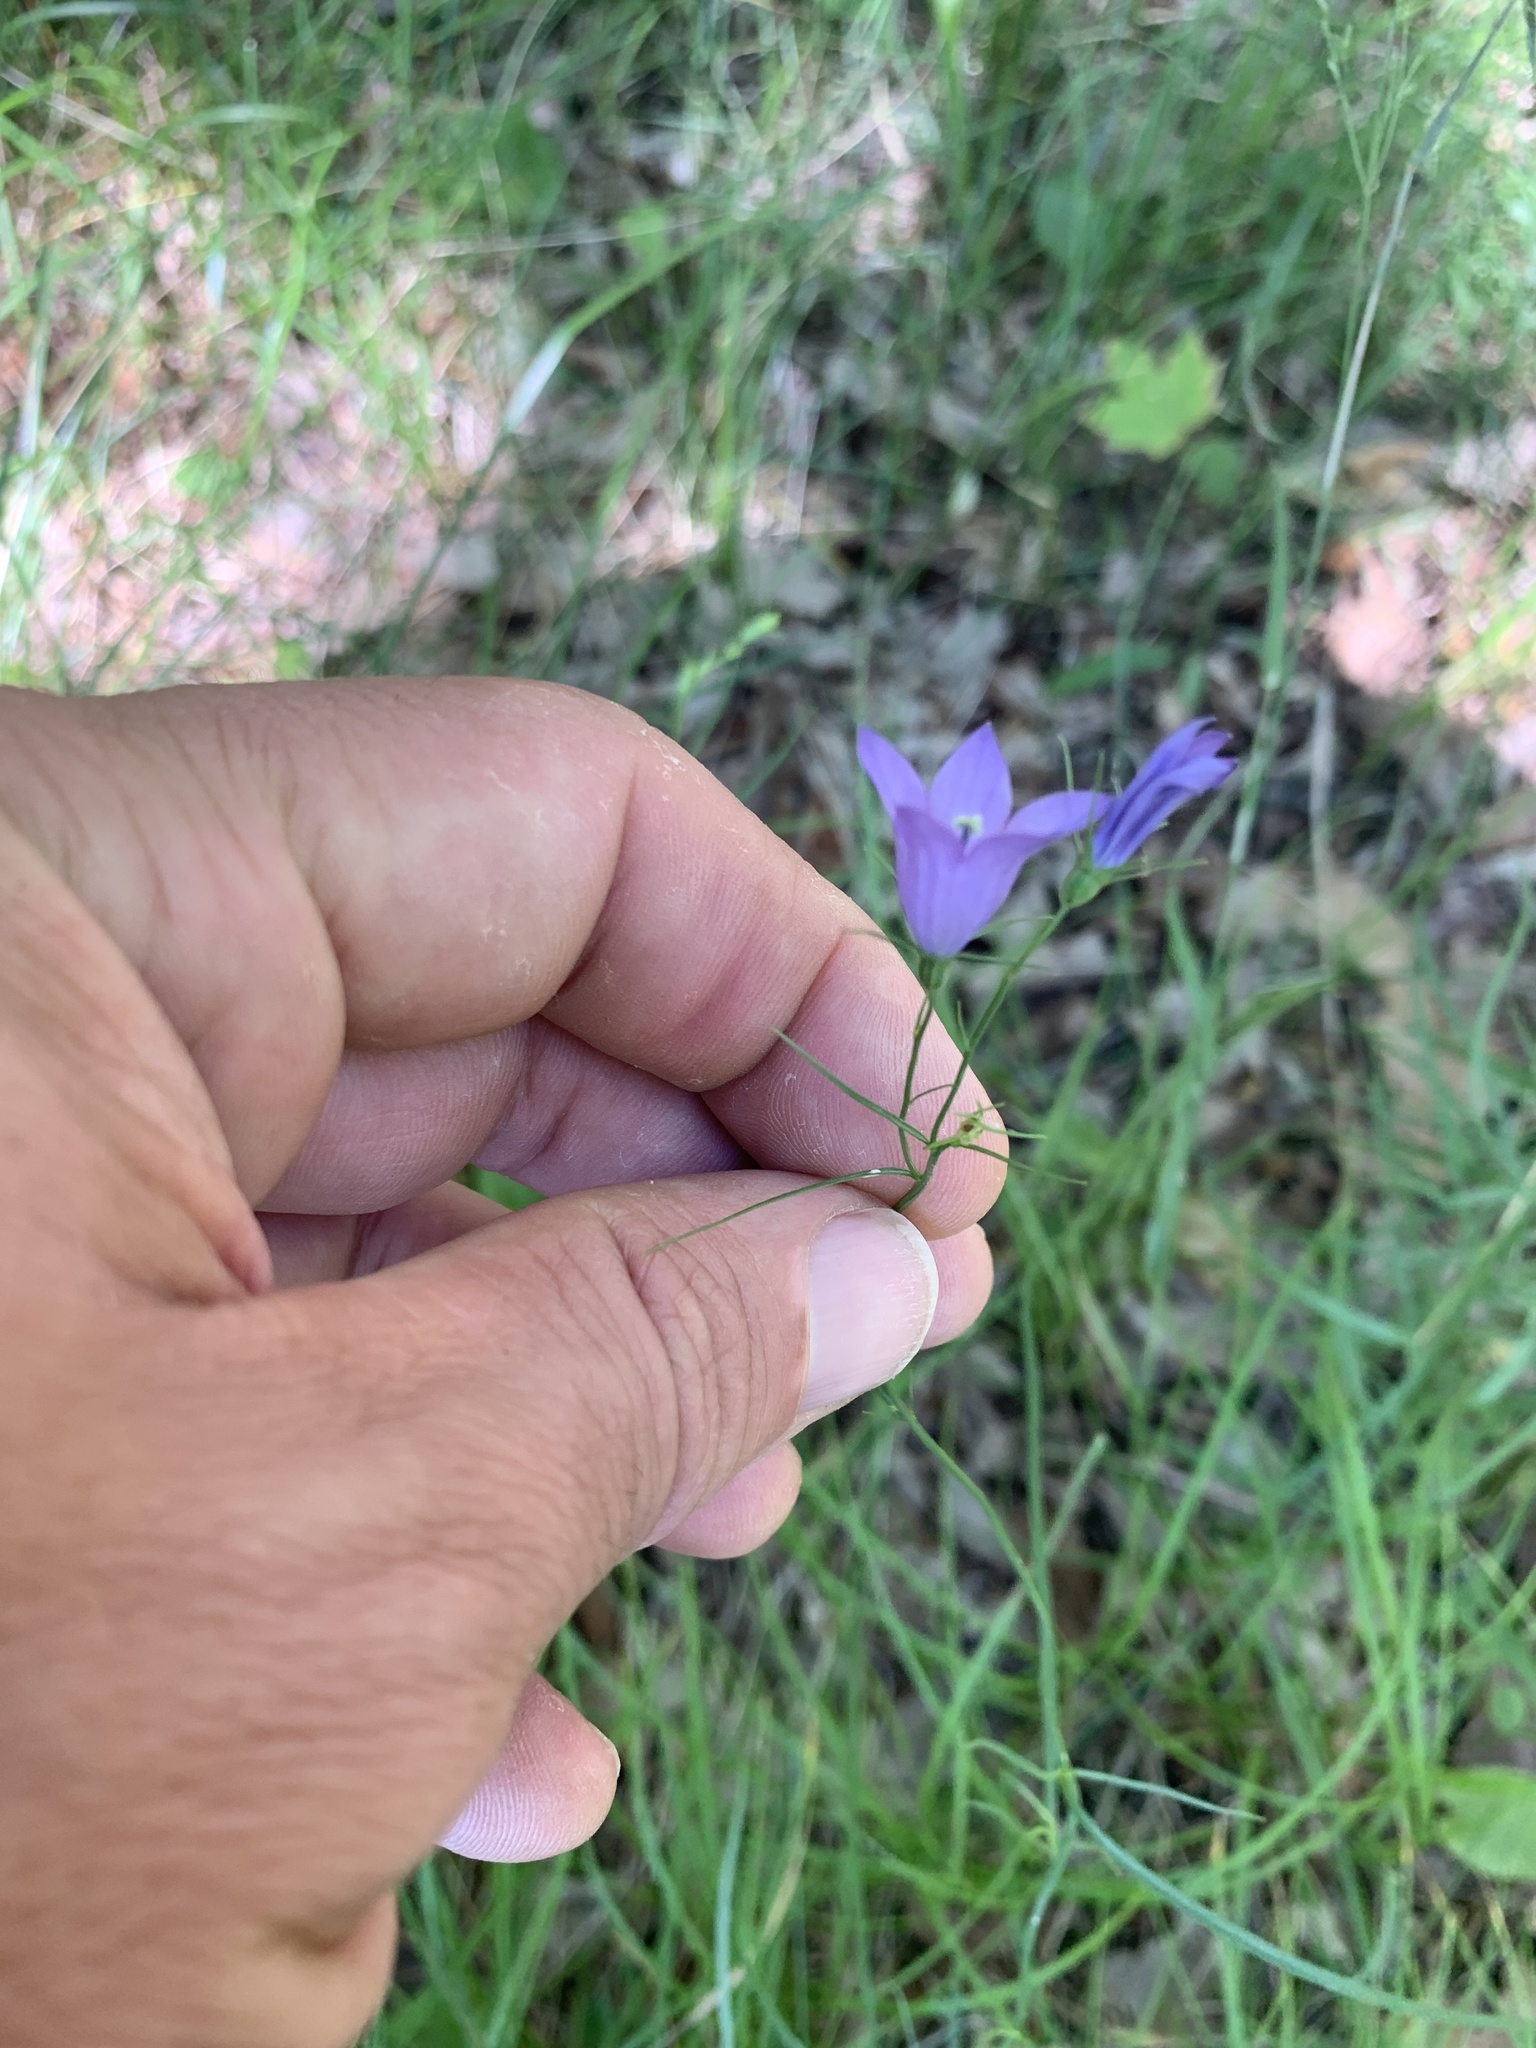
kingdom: Plantae
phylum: Tracheophyta
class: Magnoliopsida
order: Asterales
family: Campanulaceae
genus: Campanula
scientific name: Campanula intercedens
